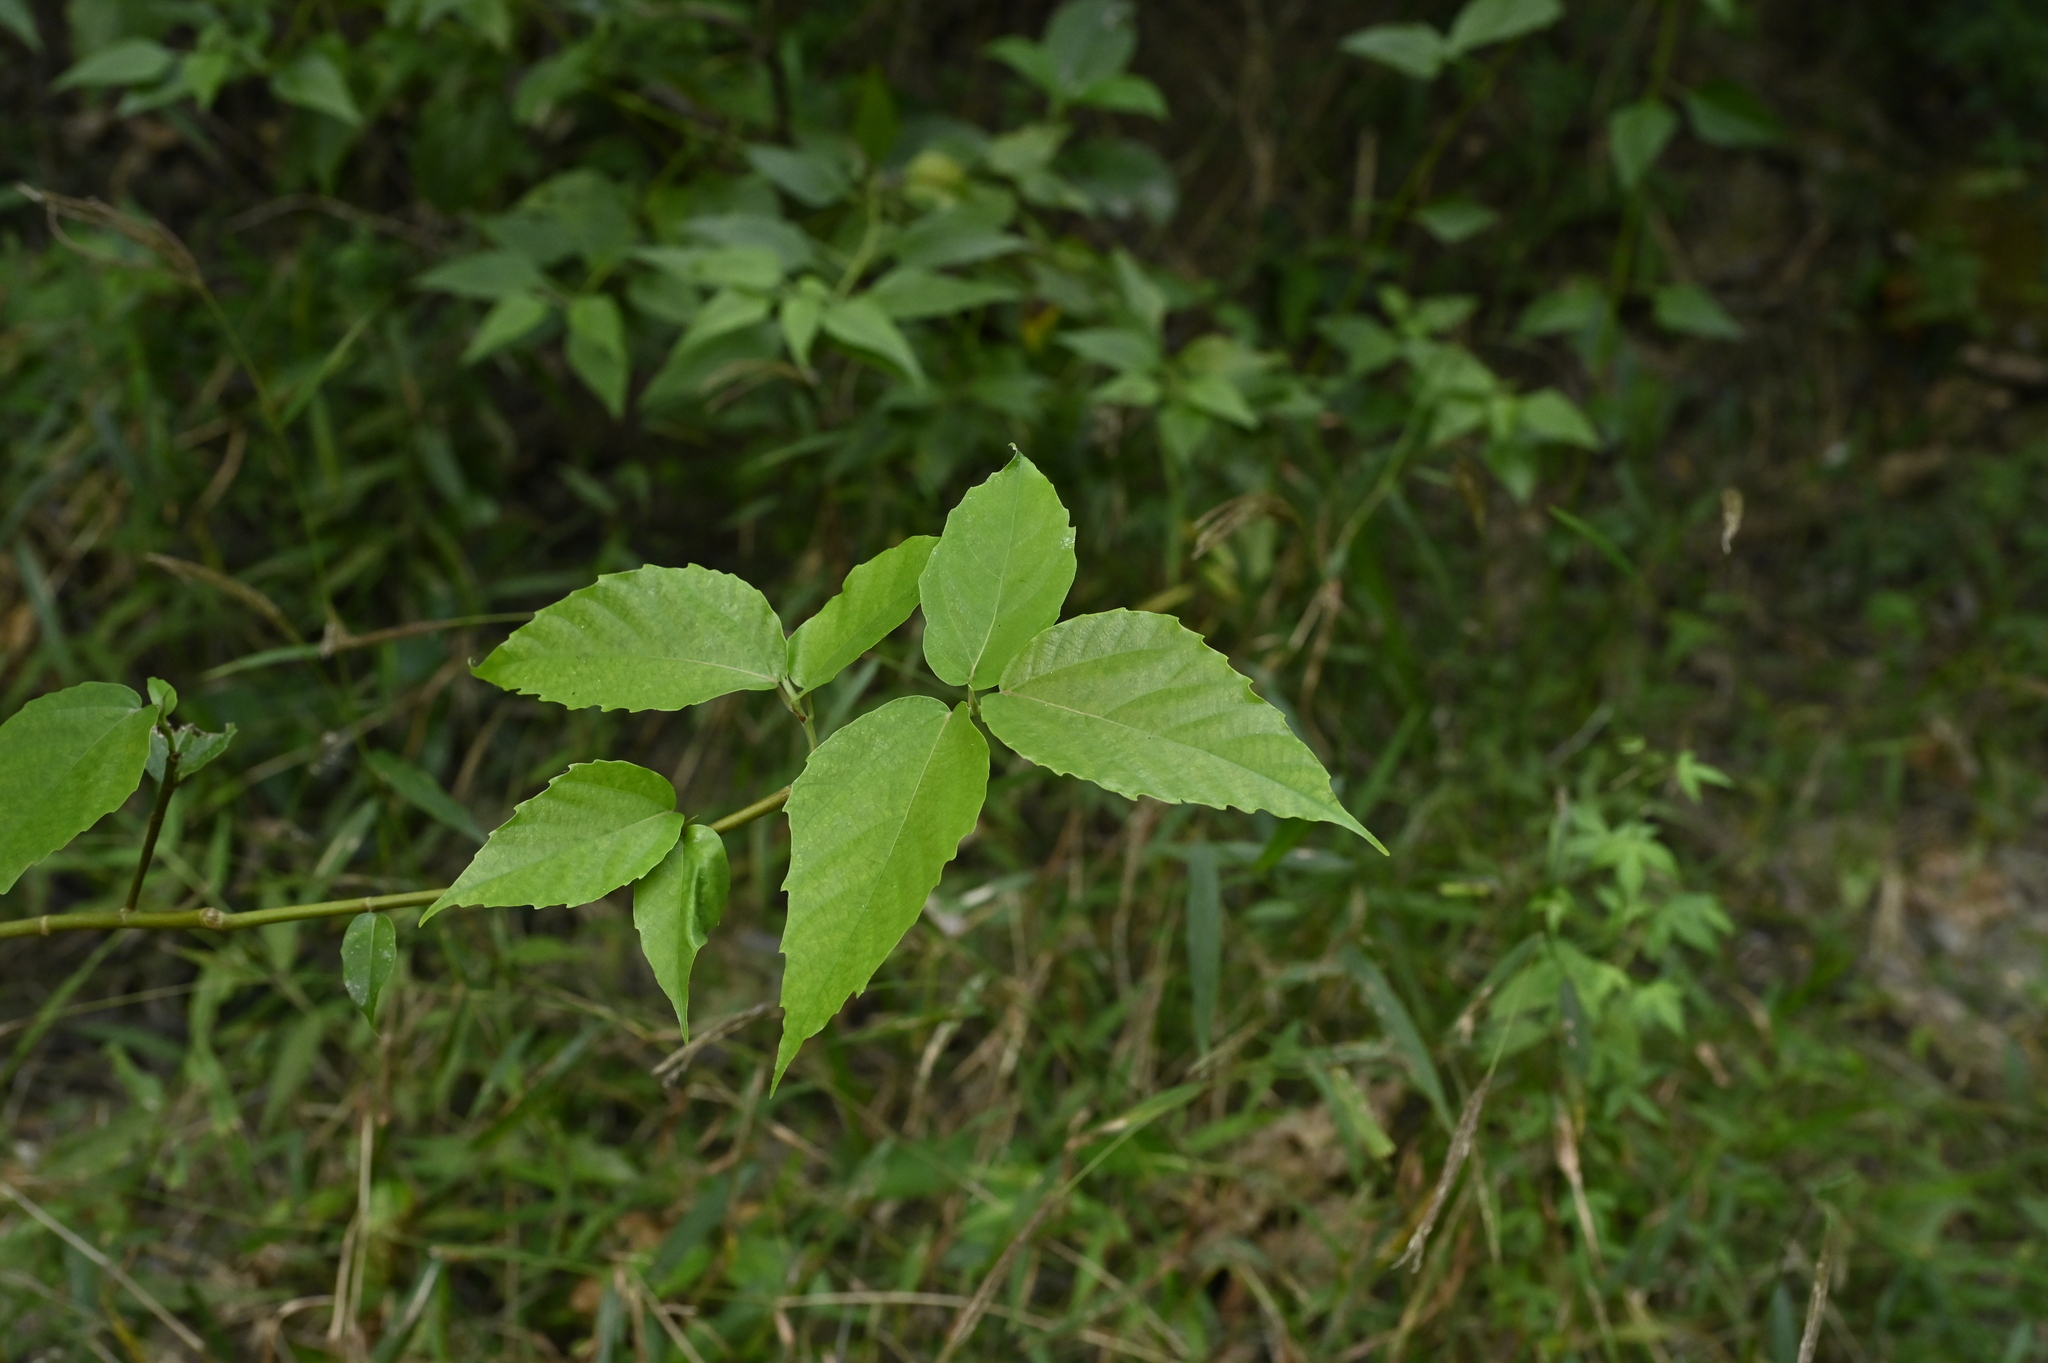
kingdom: Plantae
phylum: Tracheophyta
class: Magnoliopsida
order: Rosales
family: Moraceae
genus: Ficus
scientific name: Ficus variegata
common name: Variegated fig
